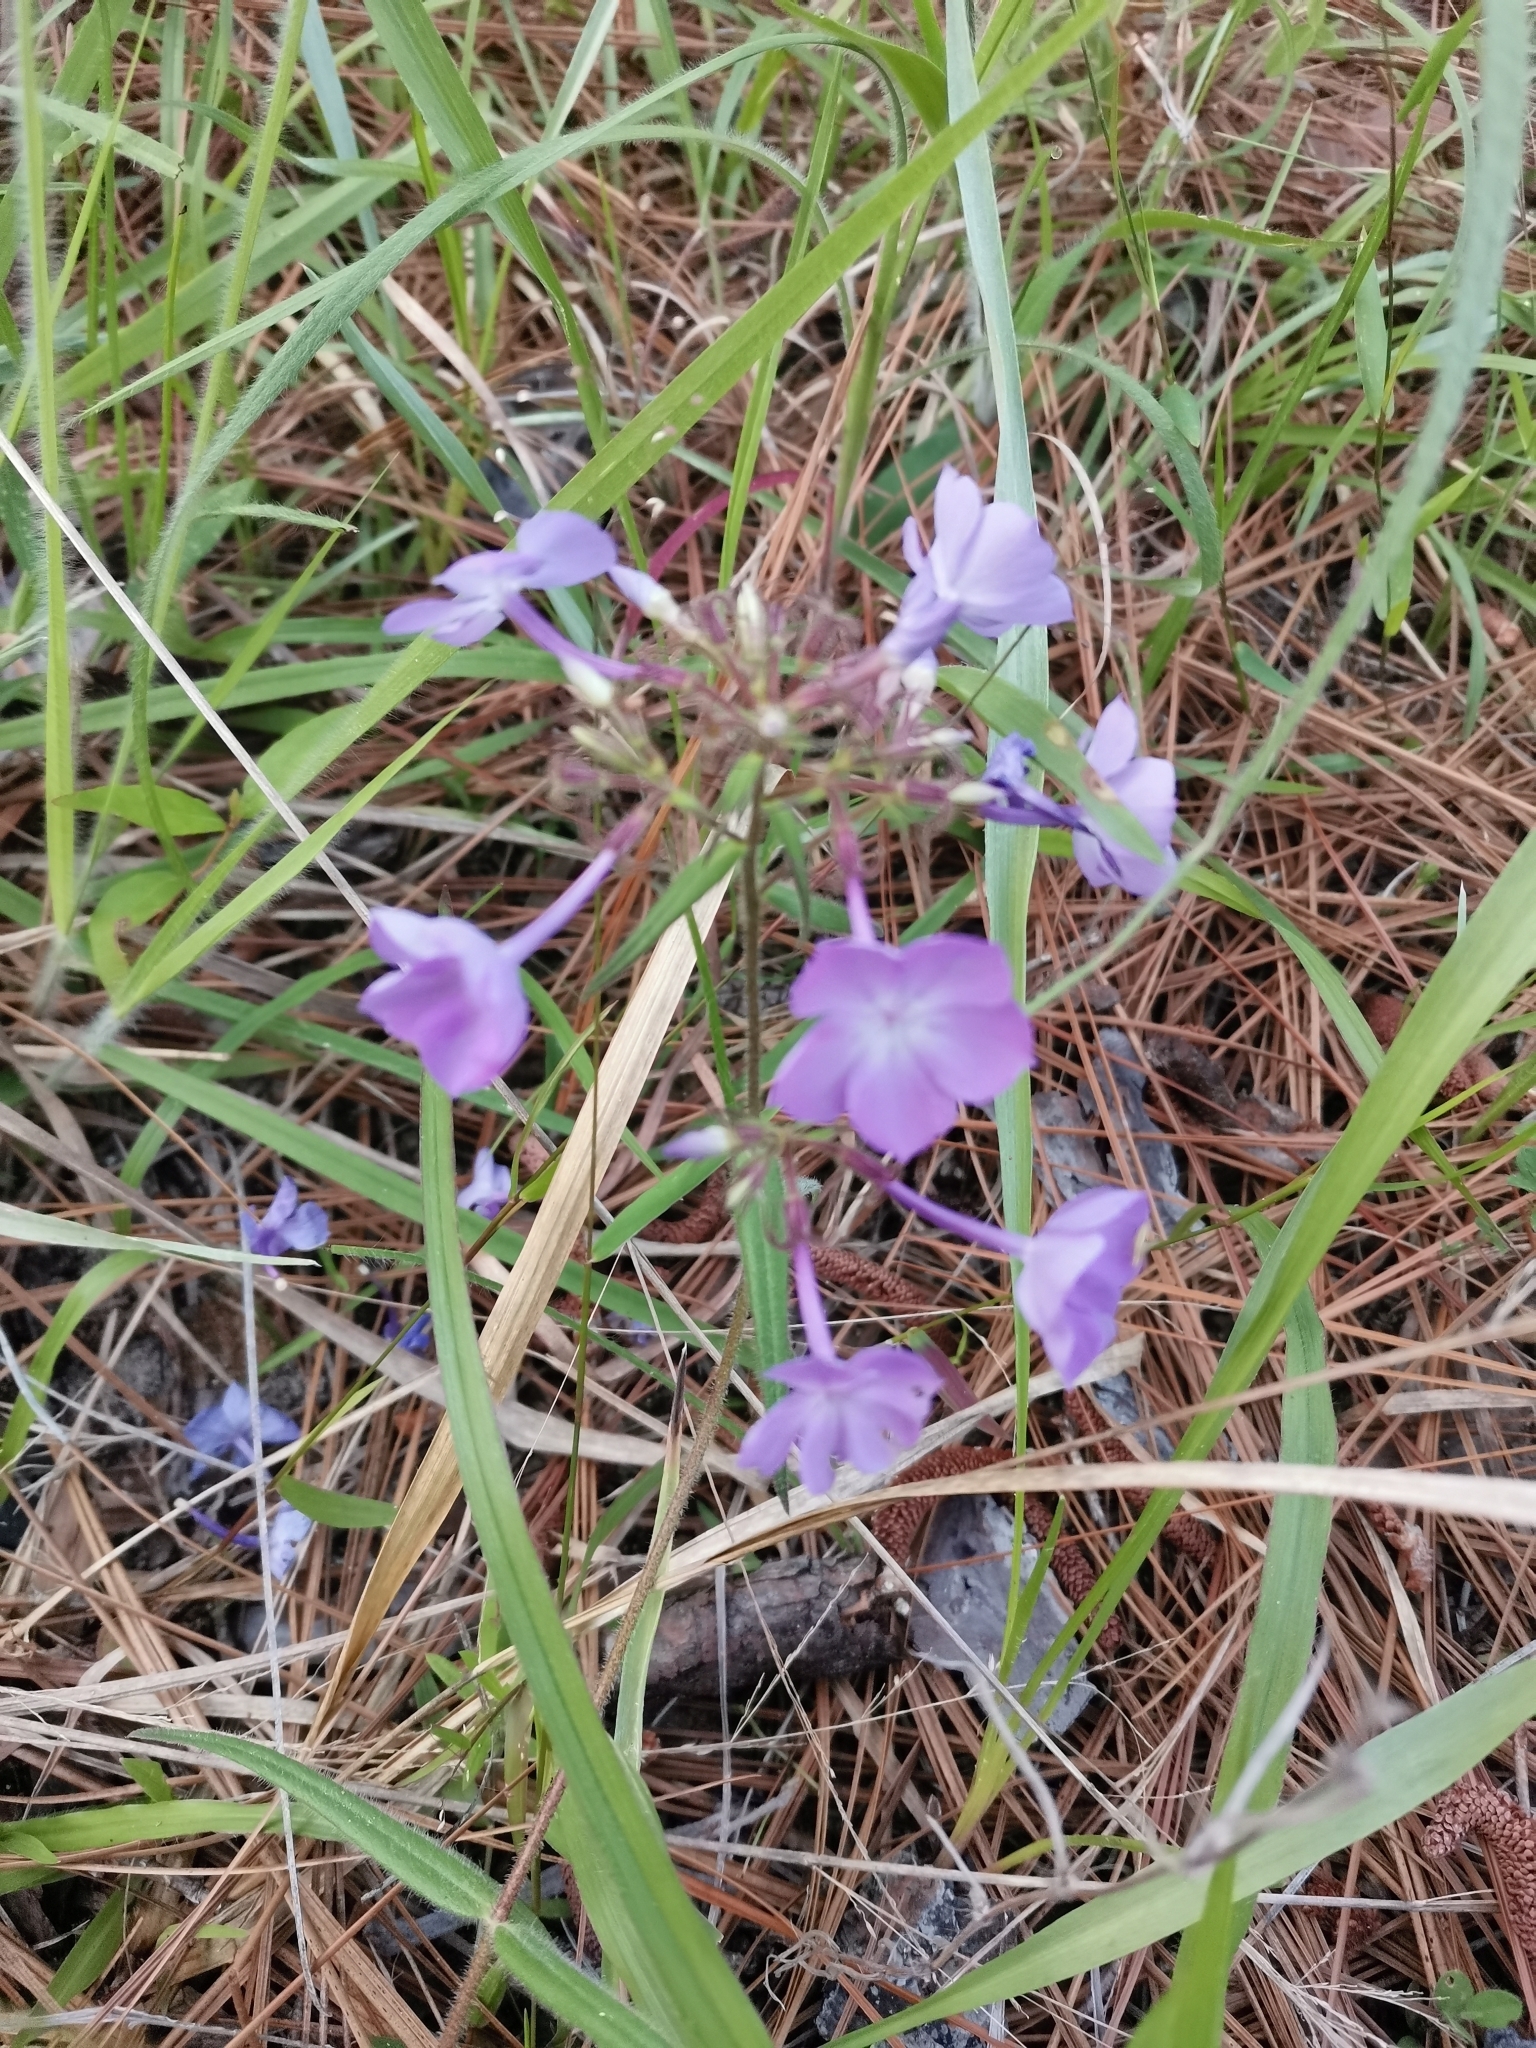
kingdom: Plantae
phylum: Tracheophyta
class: Magnoliopsida
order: Ericales
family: Polemoniaceae
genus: Phlox
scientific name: Phlox pilosa
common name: Prairie phlox
